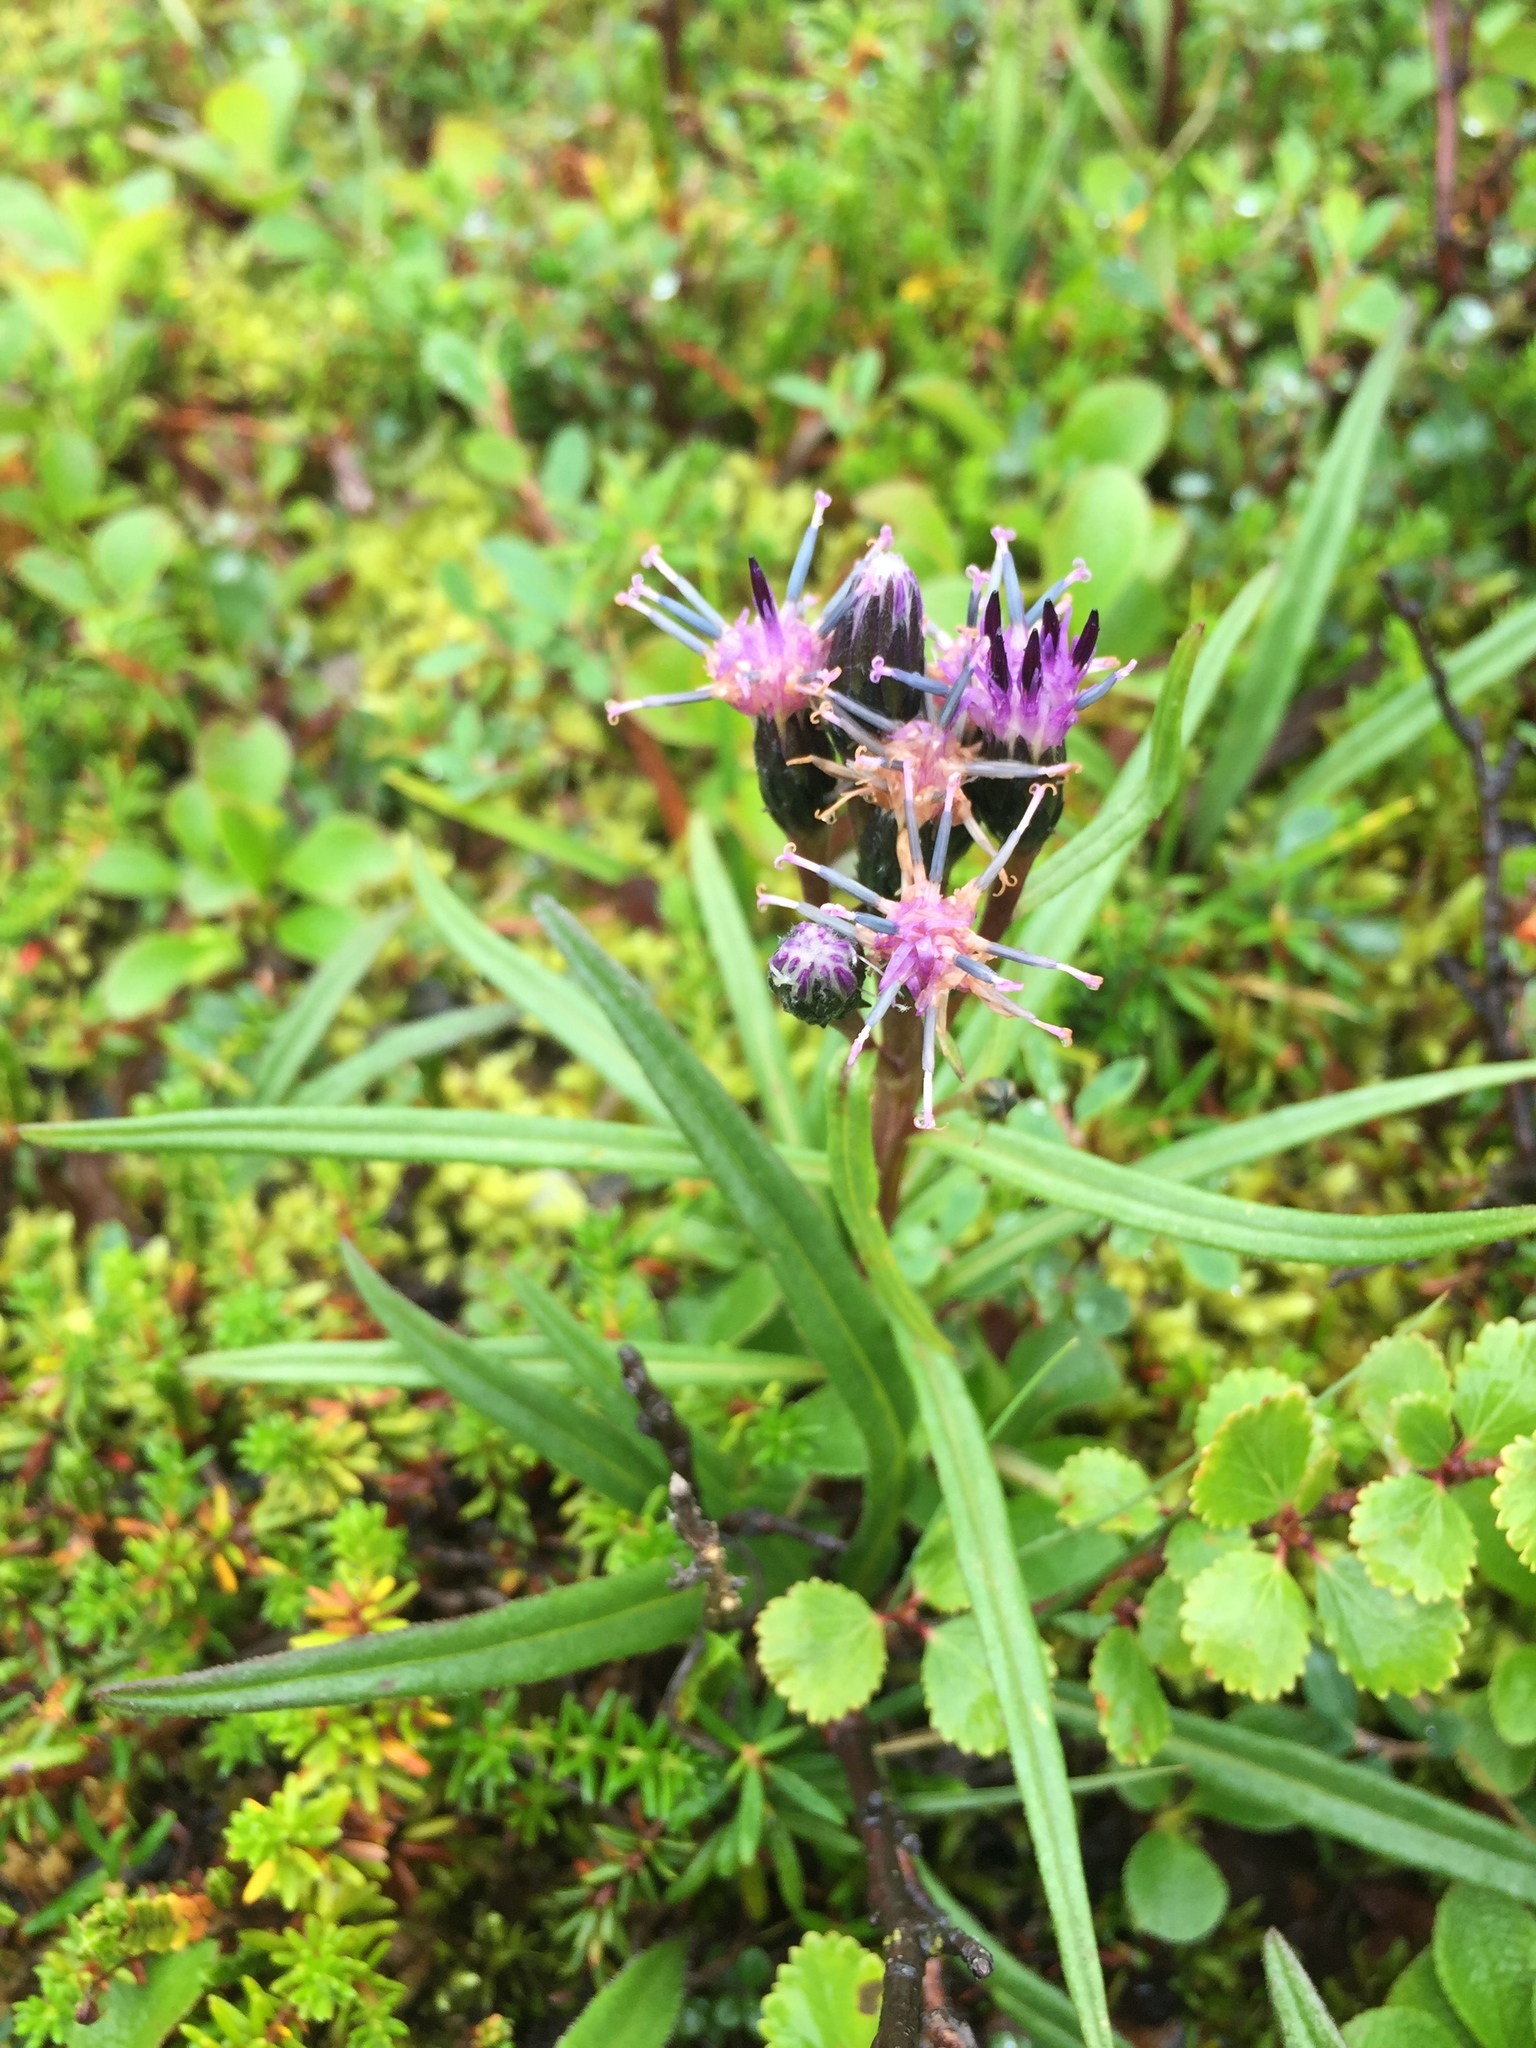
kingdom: Plantae
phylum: Tracheophyta
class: Magnoliopsida
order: Asterales
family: Asteraceae
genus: Saussurea
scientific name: Saussurea angustifolia
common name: Common saussurea
